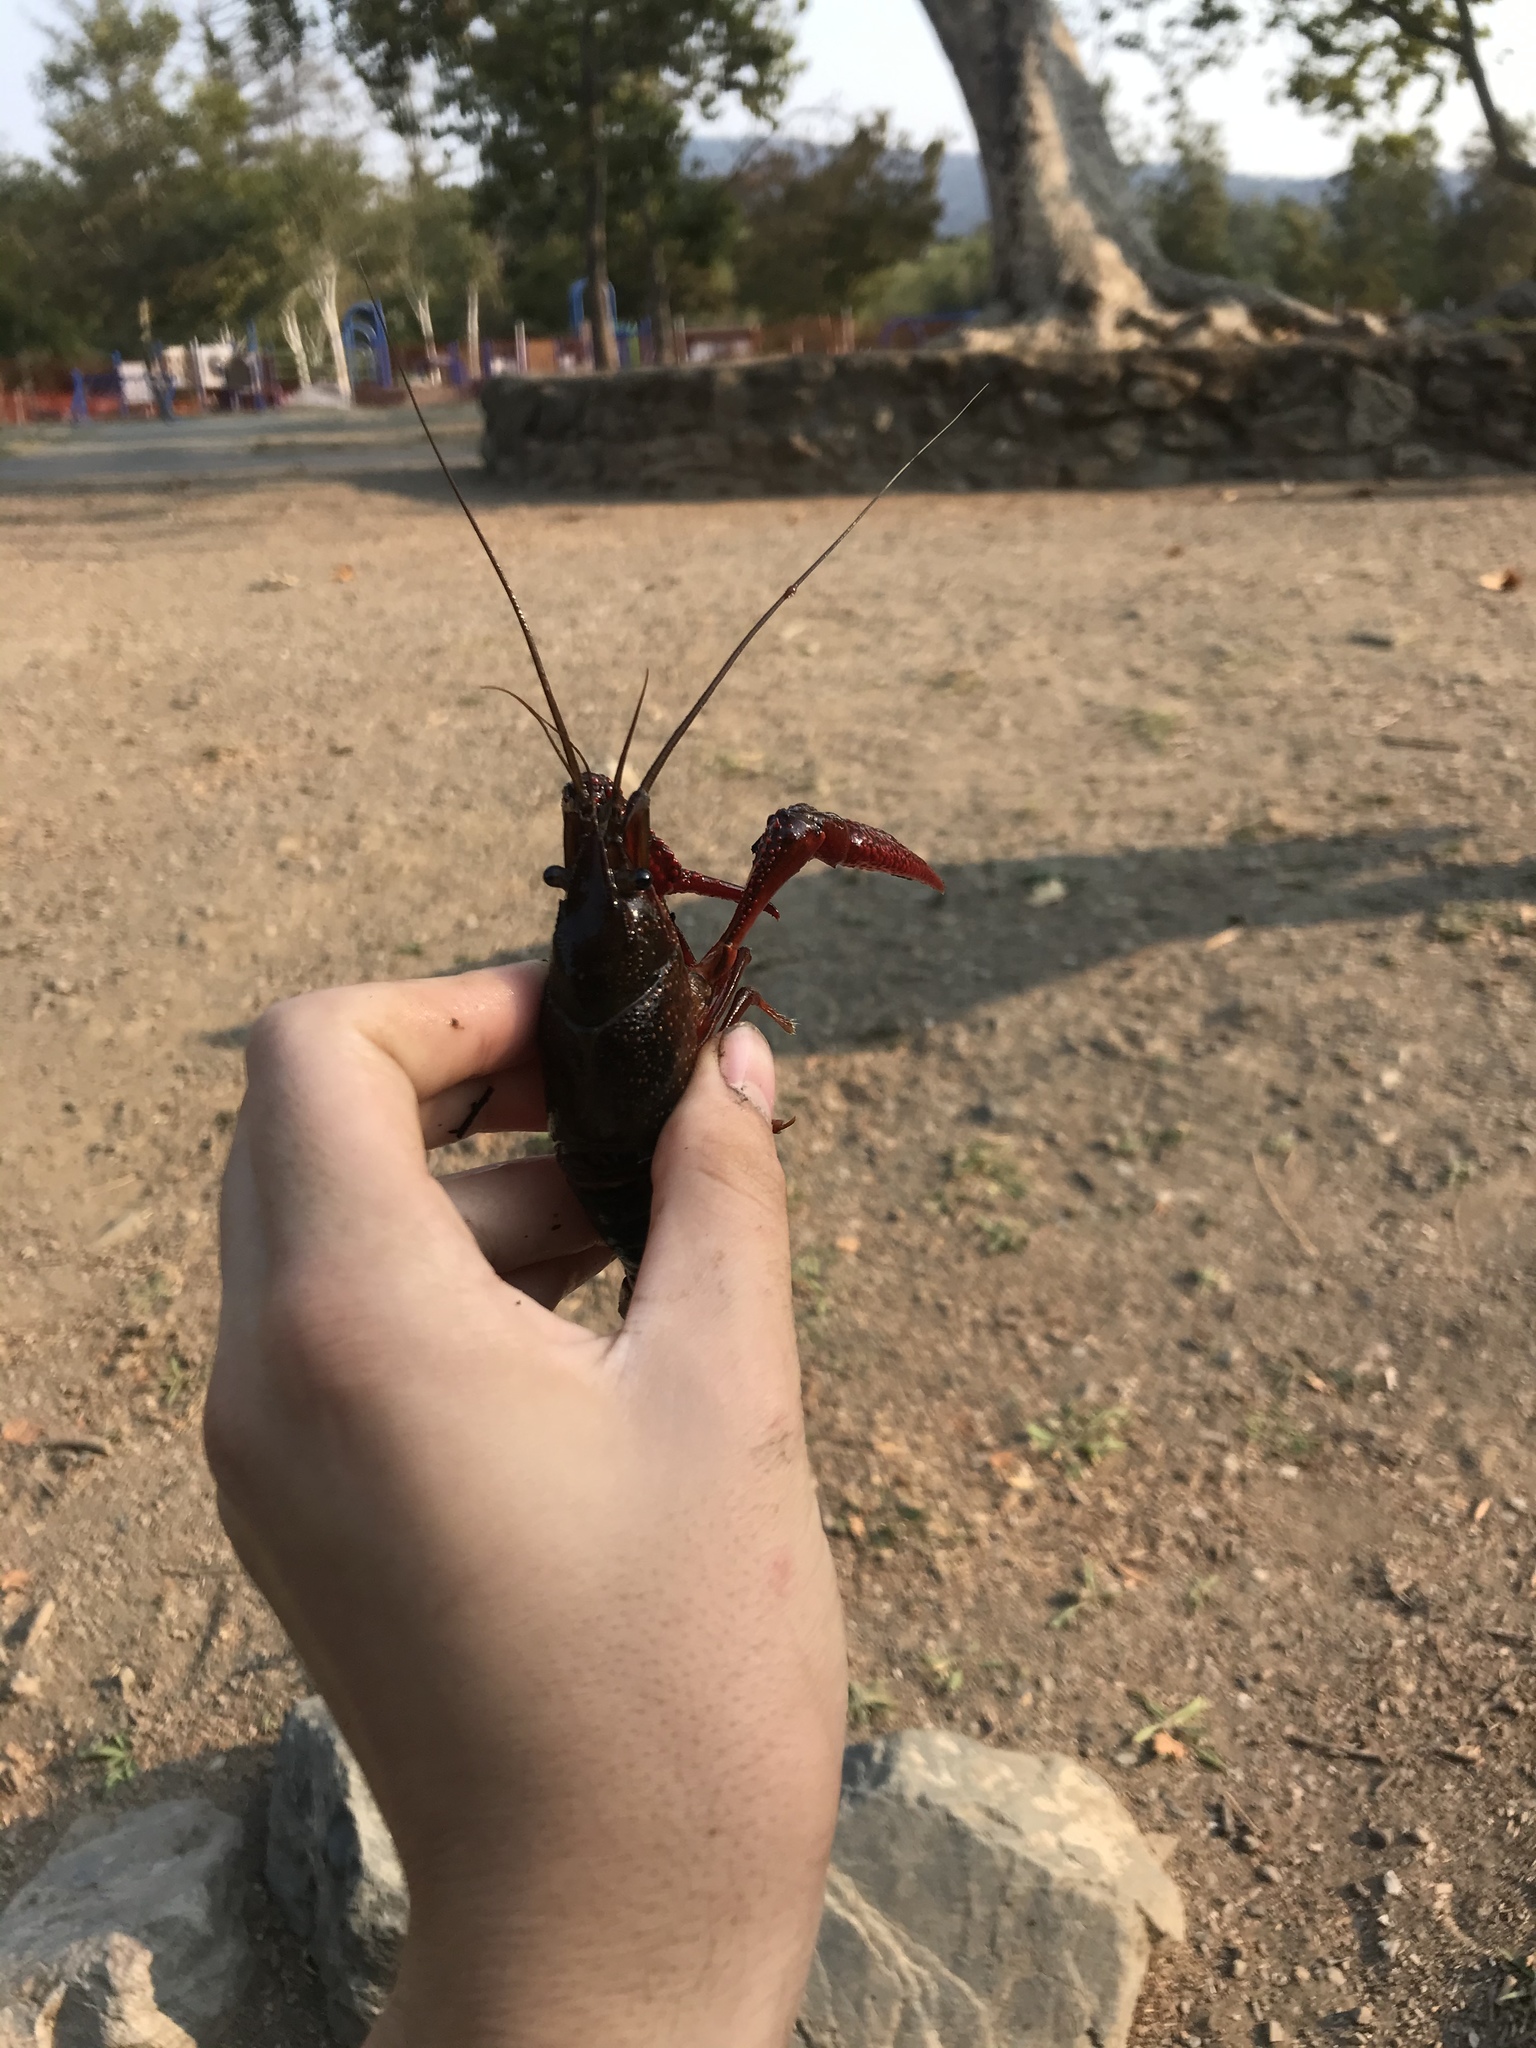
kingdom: Animalia
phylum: Arthropoda
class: Malacostraca
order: Decapoda
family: Cambaridae
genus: Procambarus
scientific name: Procambarus clarkii
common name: Red swamp crayfish
